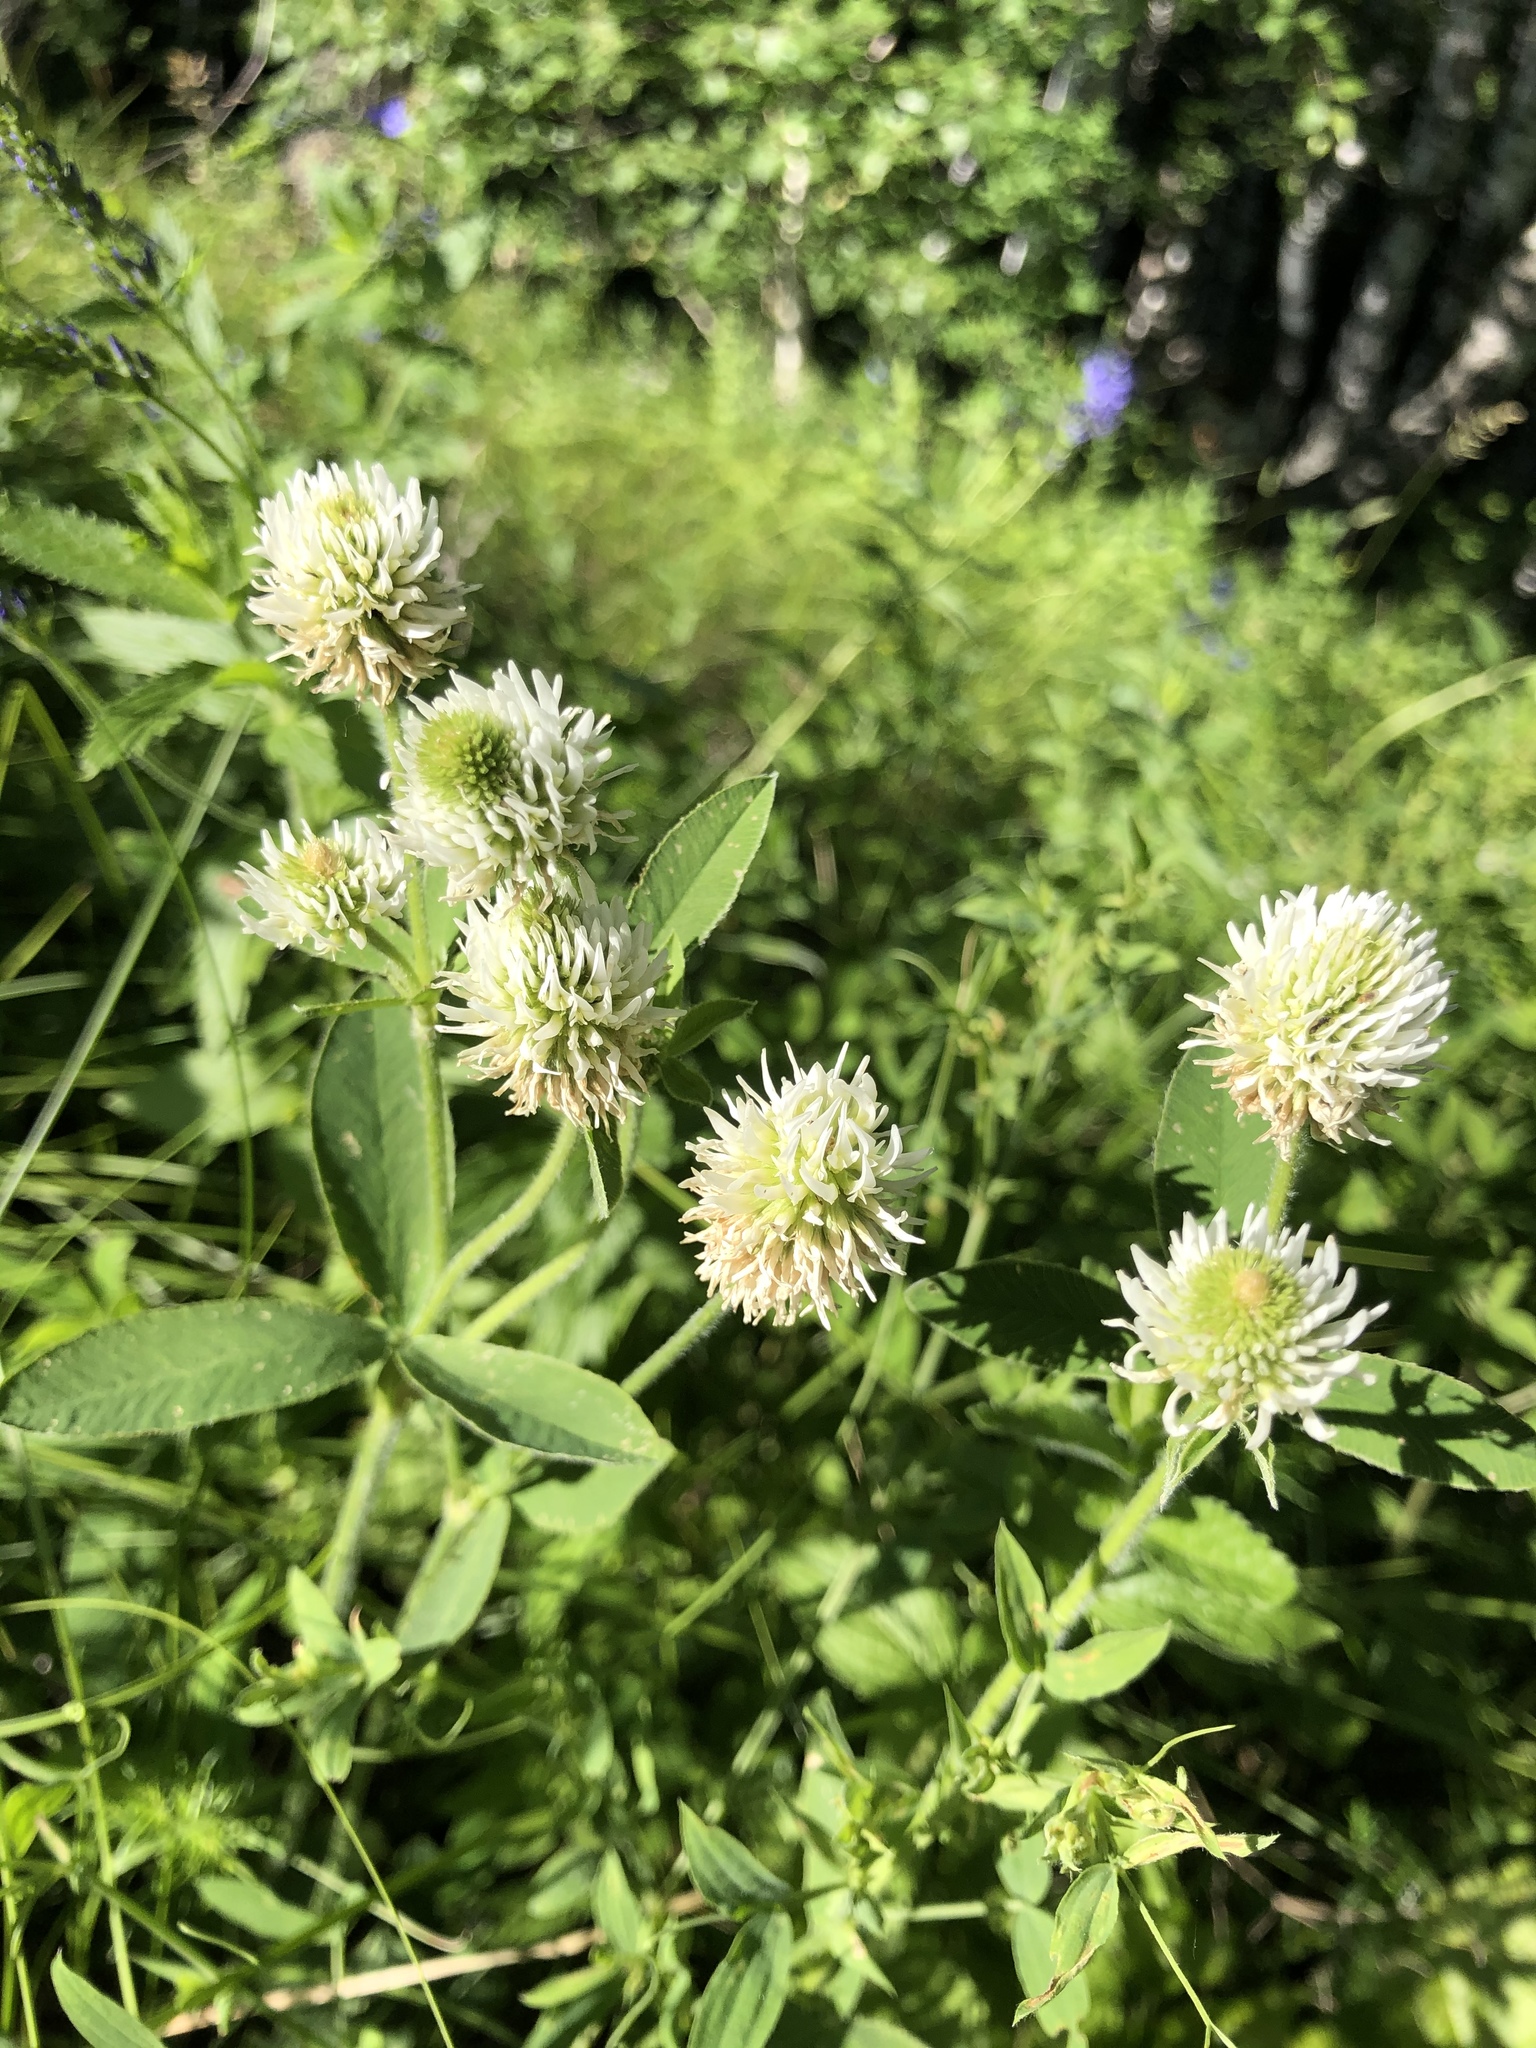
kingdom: Plantae
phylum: Tracheophyta
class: Magnoliopsida
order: Fabales
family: Fabaceae
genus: Trifolium
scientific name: Trifolium montanum
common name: Mountain clover
